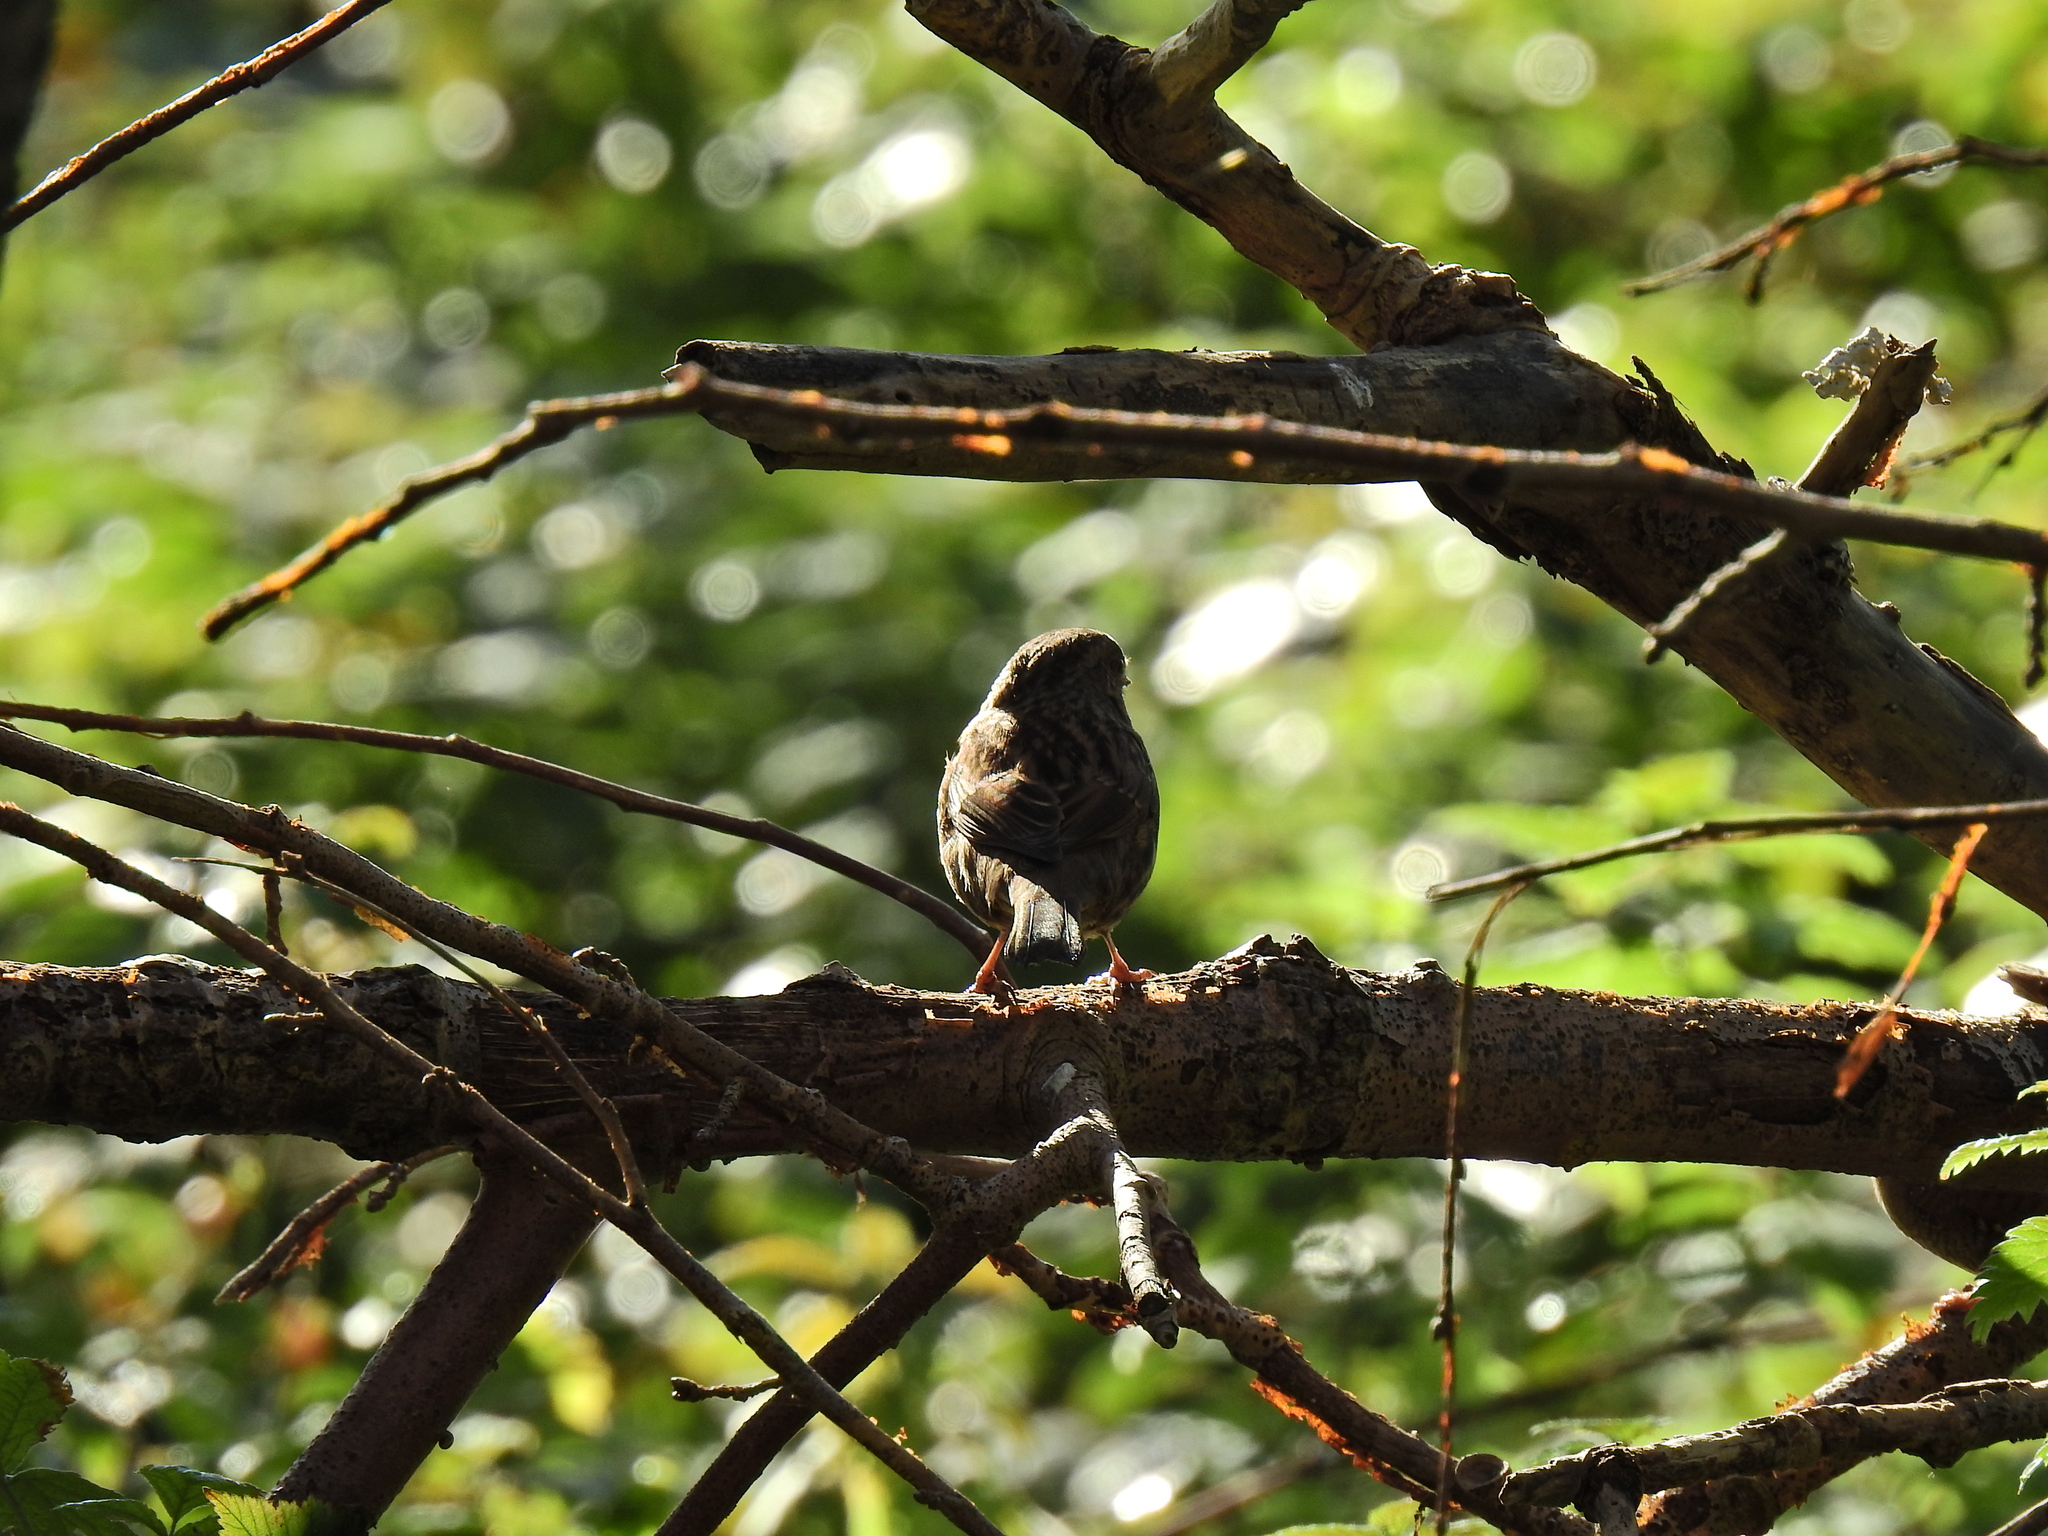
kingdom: Animalia
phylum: Chordata
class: Aves
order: Passeriformes
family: Prunellidae
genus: Prunella
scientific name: Prunella modularis
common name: Dunnock
